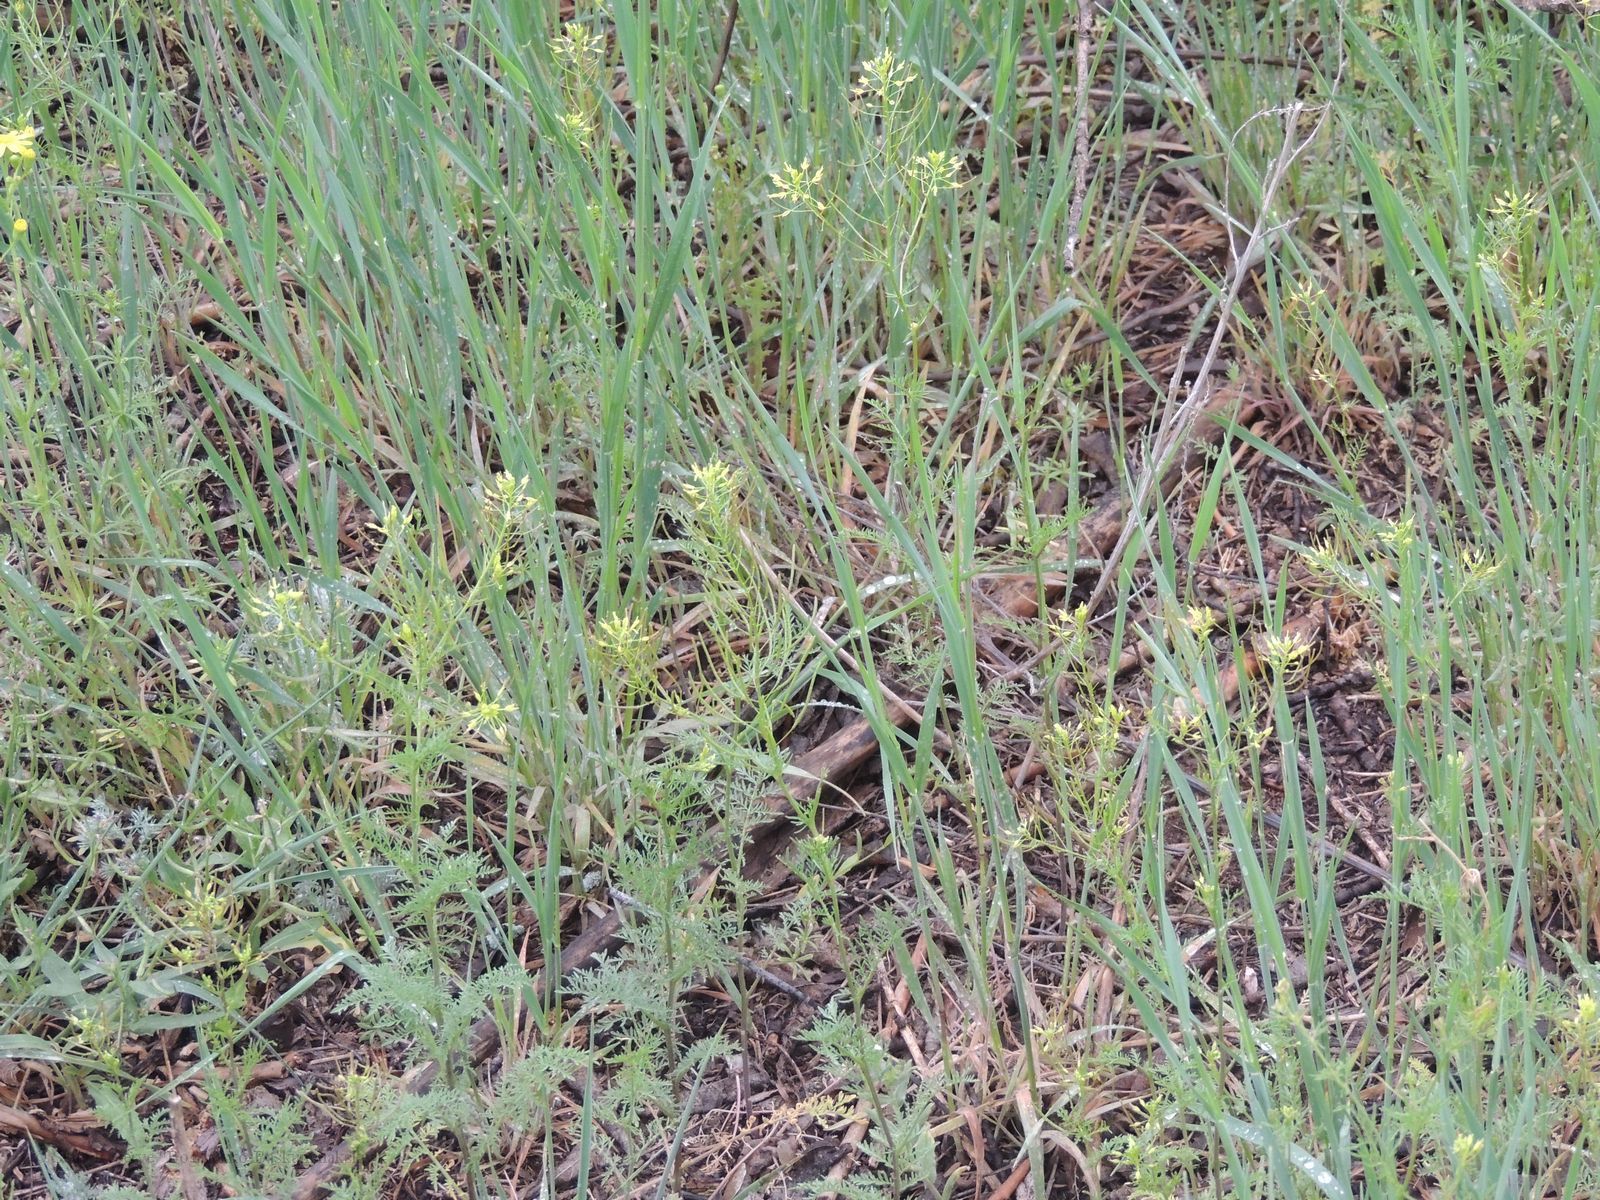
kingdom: Plantae
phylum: Tracheophyta
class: Magnoliopsida
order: Brassicales
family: Brassicaceae
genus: Descurainia
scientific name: Descurainia sophia
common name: Flixweed
